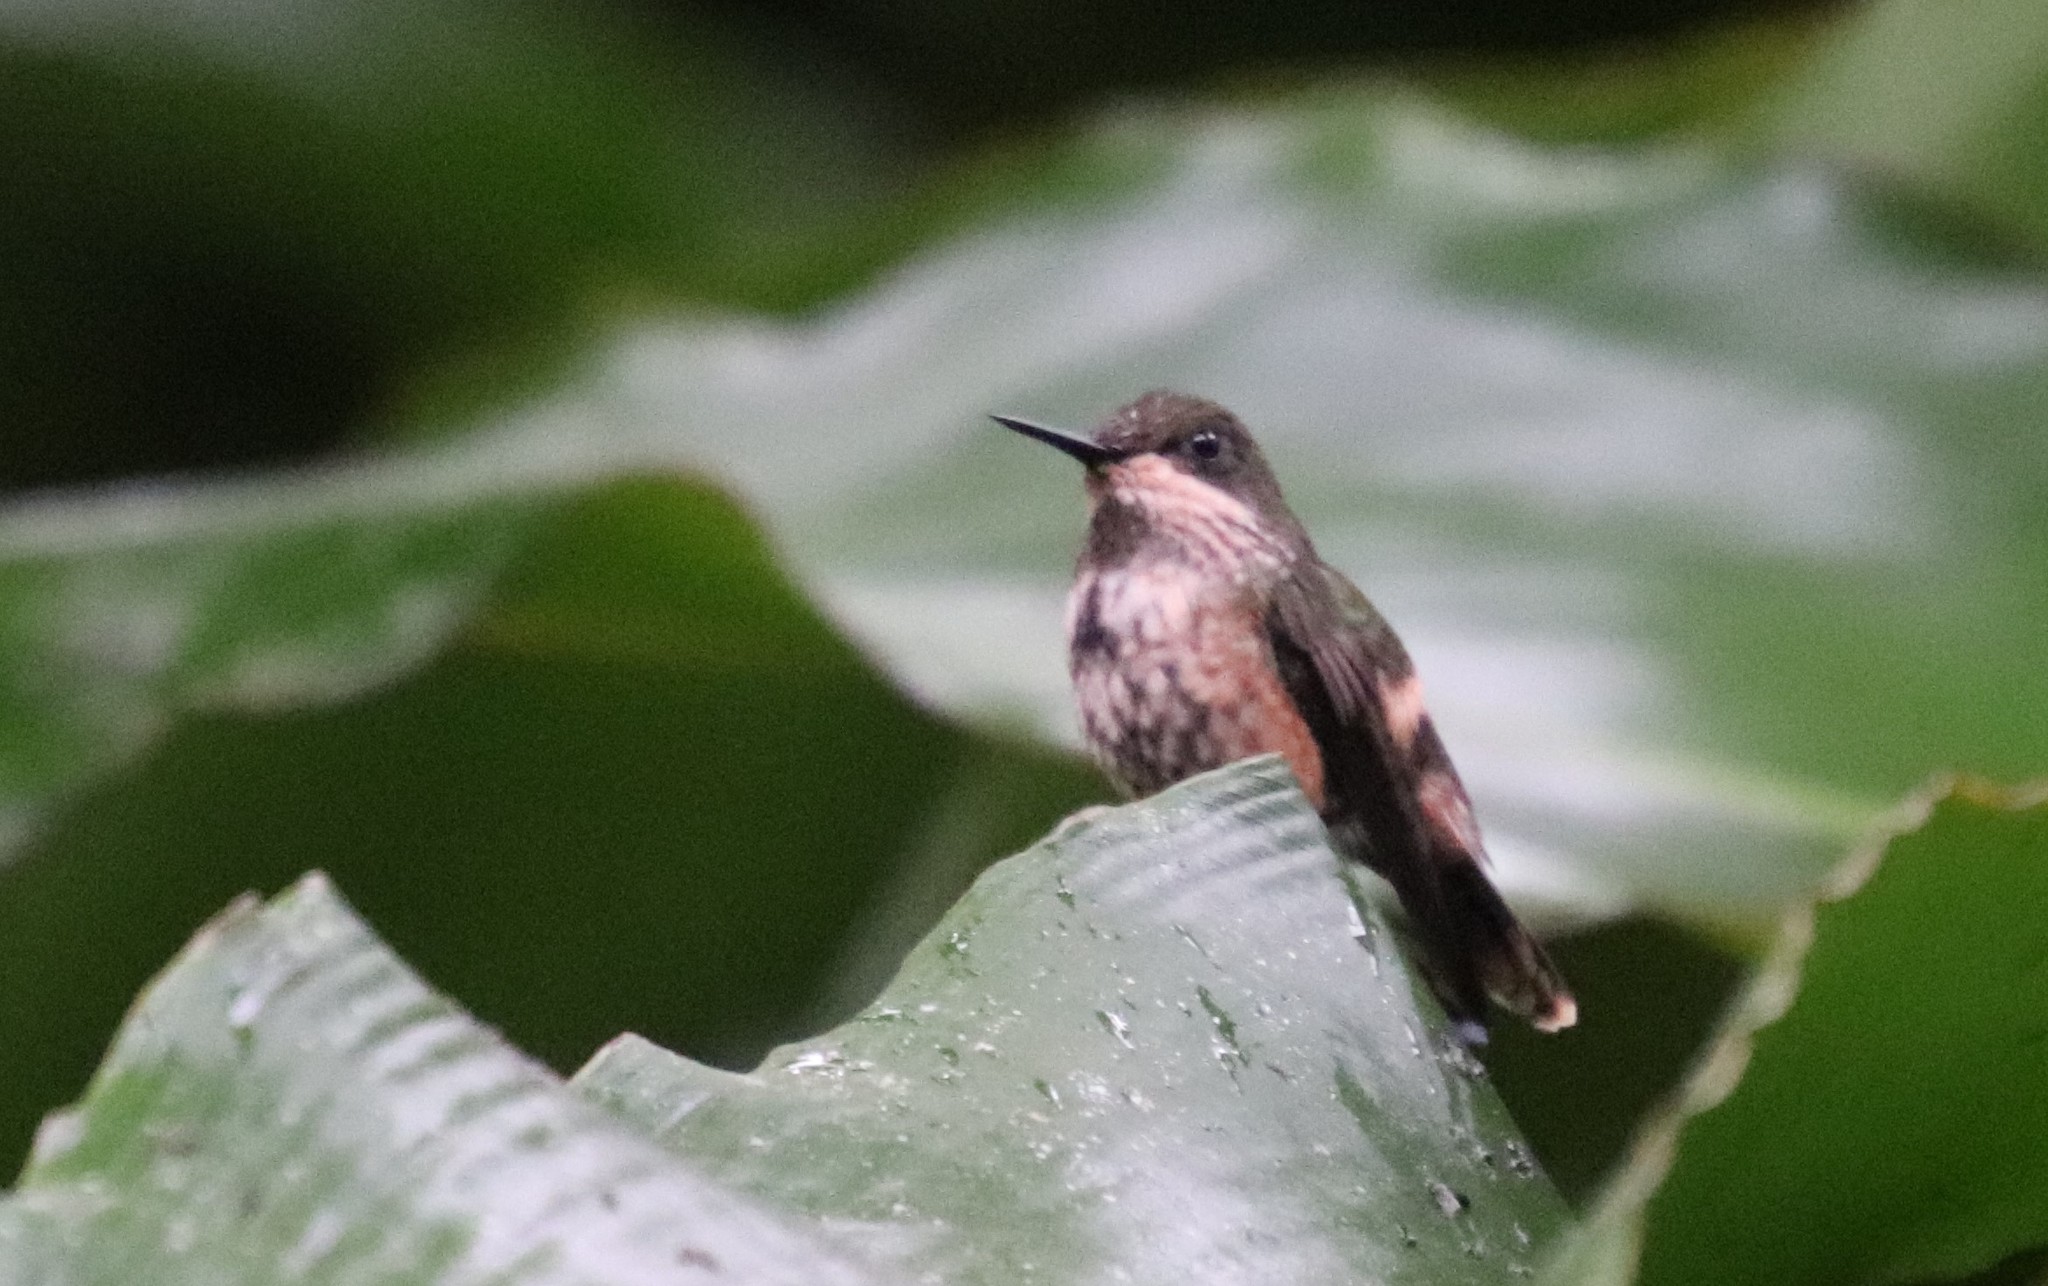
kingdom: Animalia
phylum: Chordata
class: Aves
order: Apodiformes
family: Trochilidae
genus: Lophornis
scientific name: Lophornis chalybeus
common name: Festive coquette
